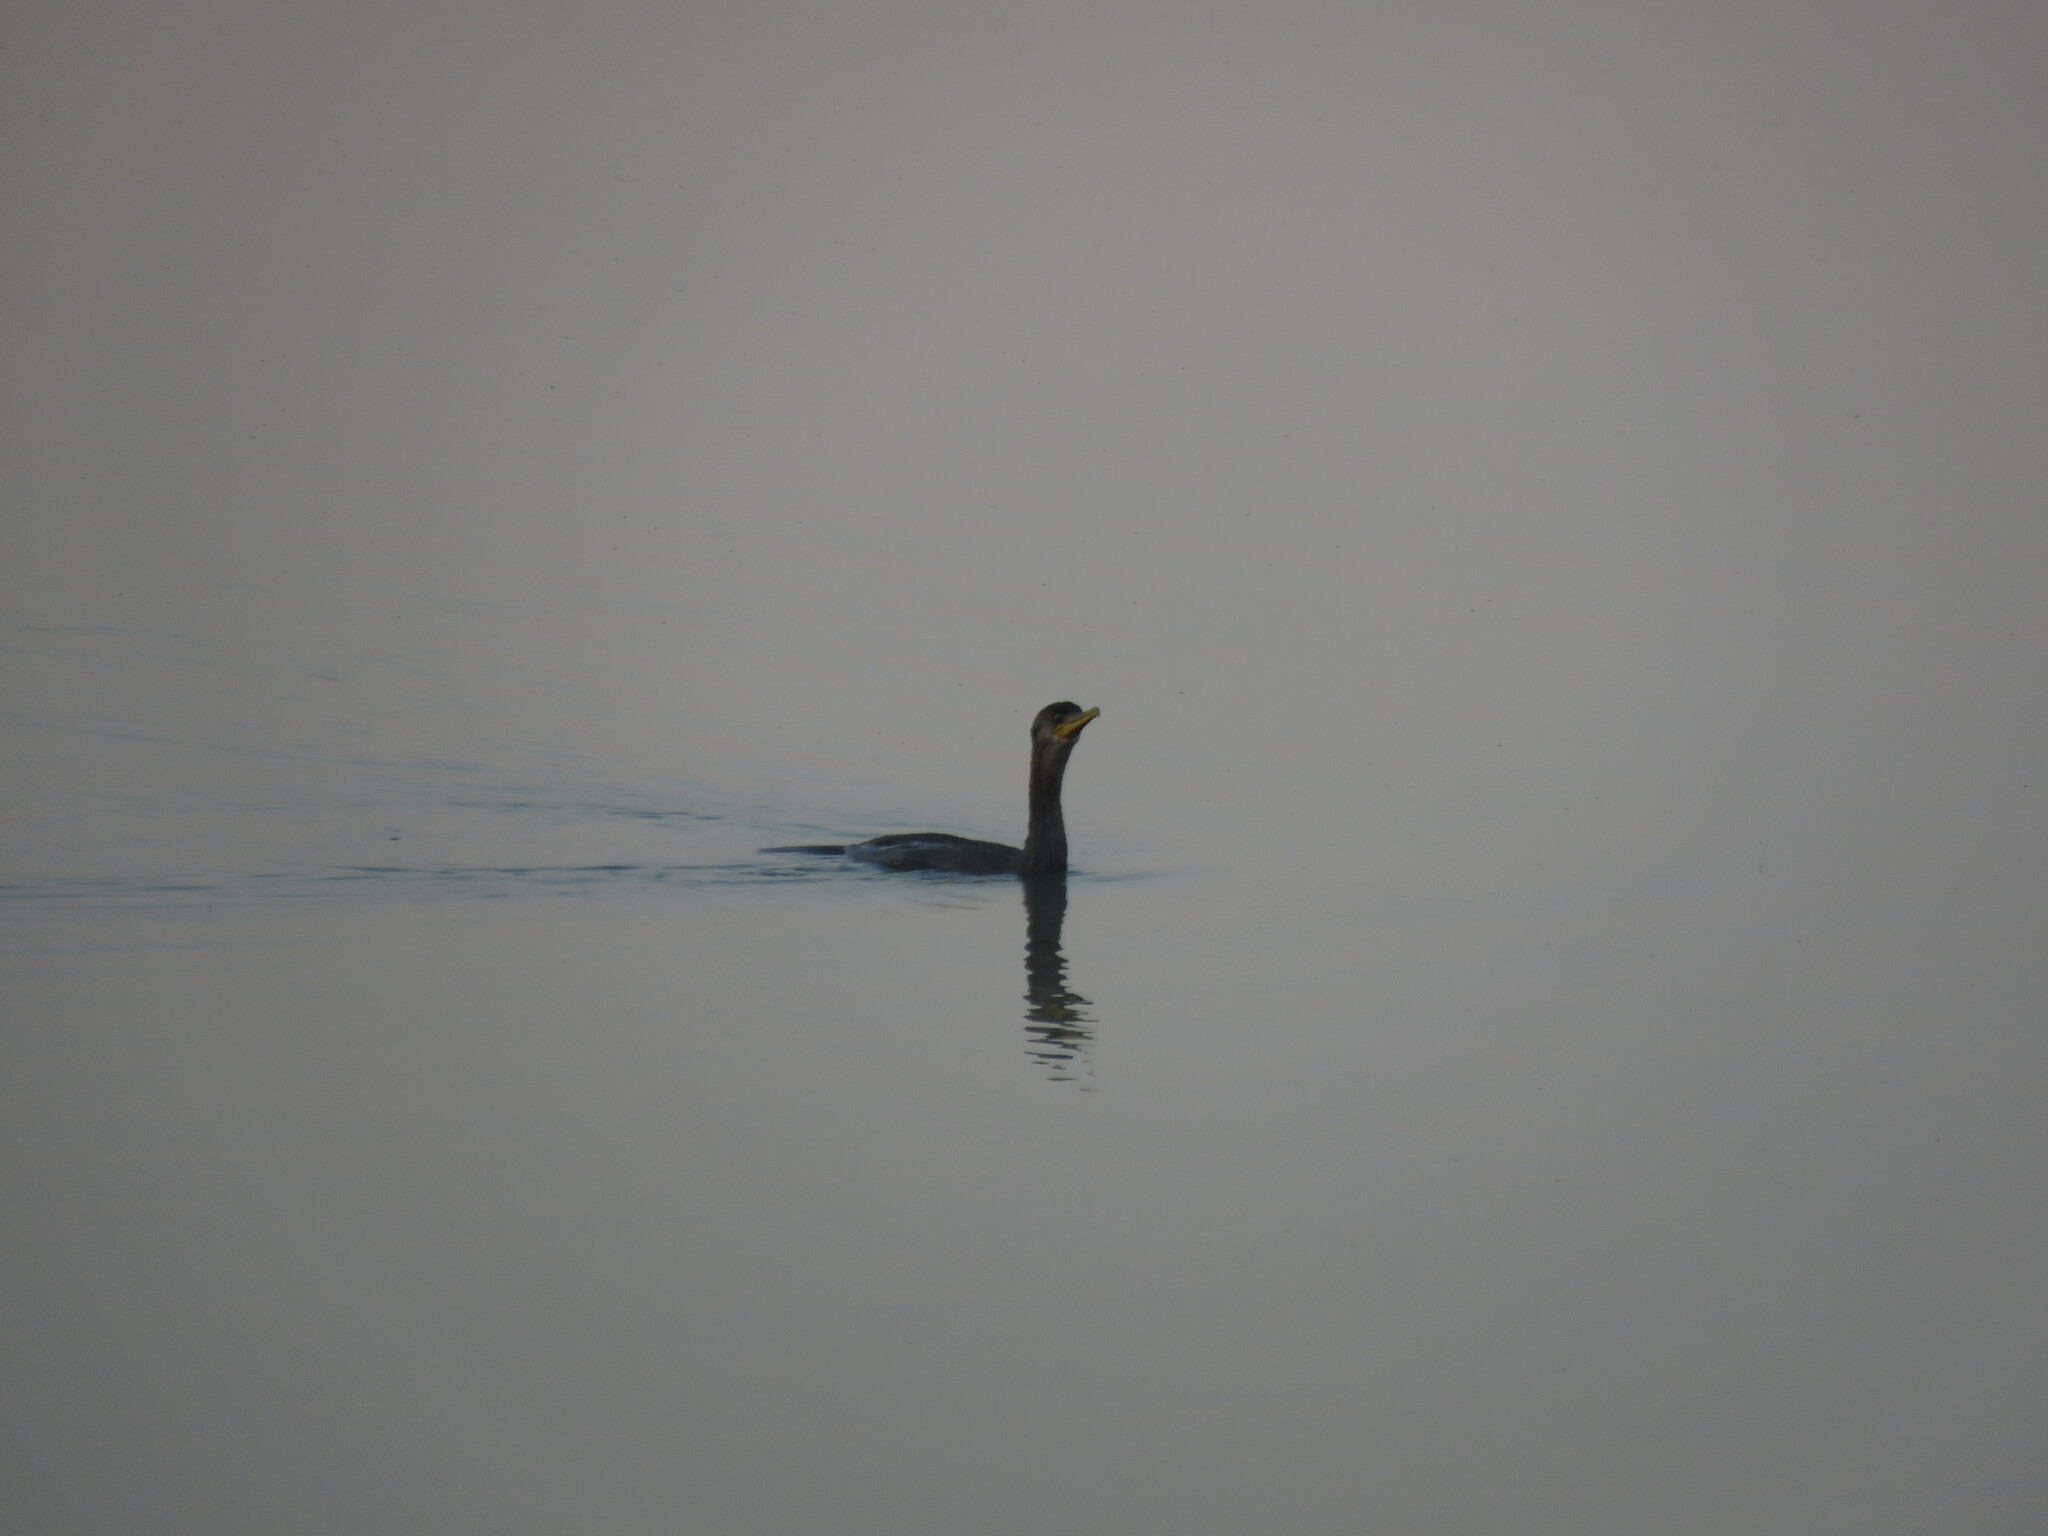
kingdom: Animalia
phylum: Chordata
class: Aves
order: Suliformes
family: Phalacrocoracidae
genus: Phalacrocorax
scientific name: Phalacrocorax brasilianus
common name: Neotropic cormorant
